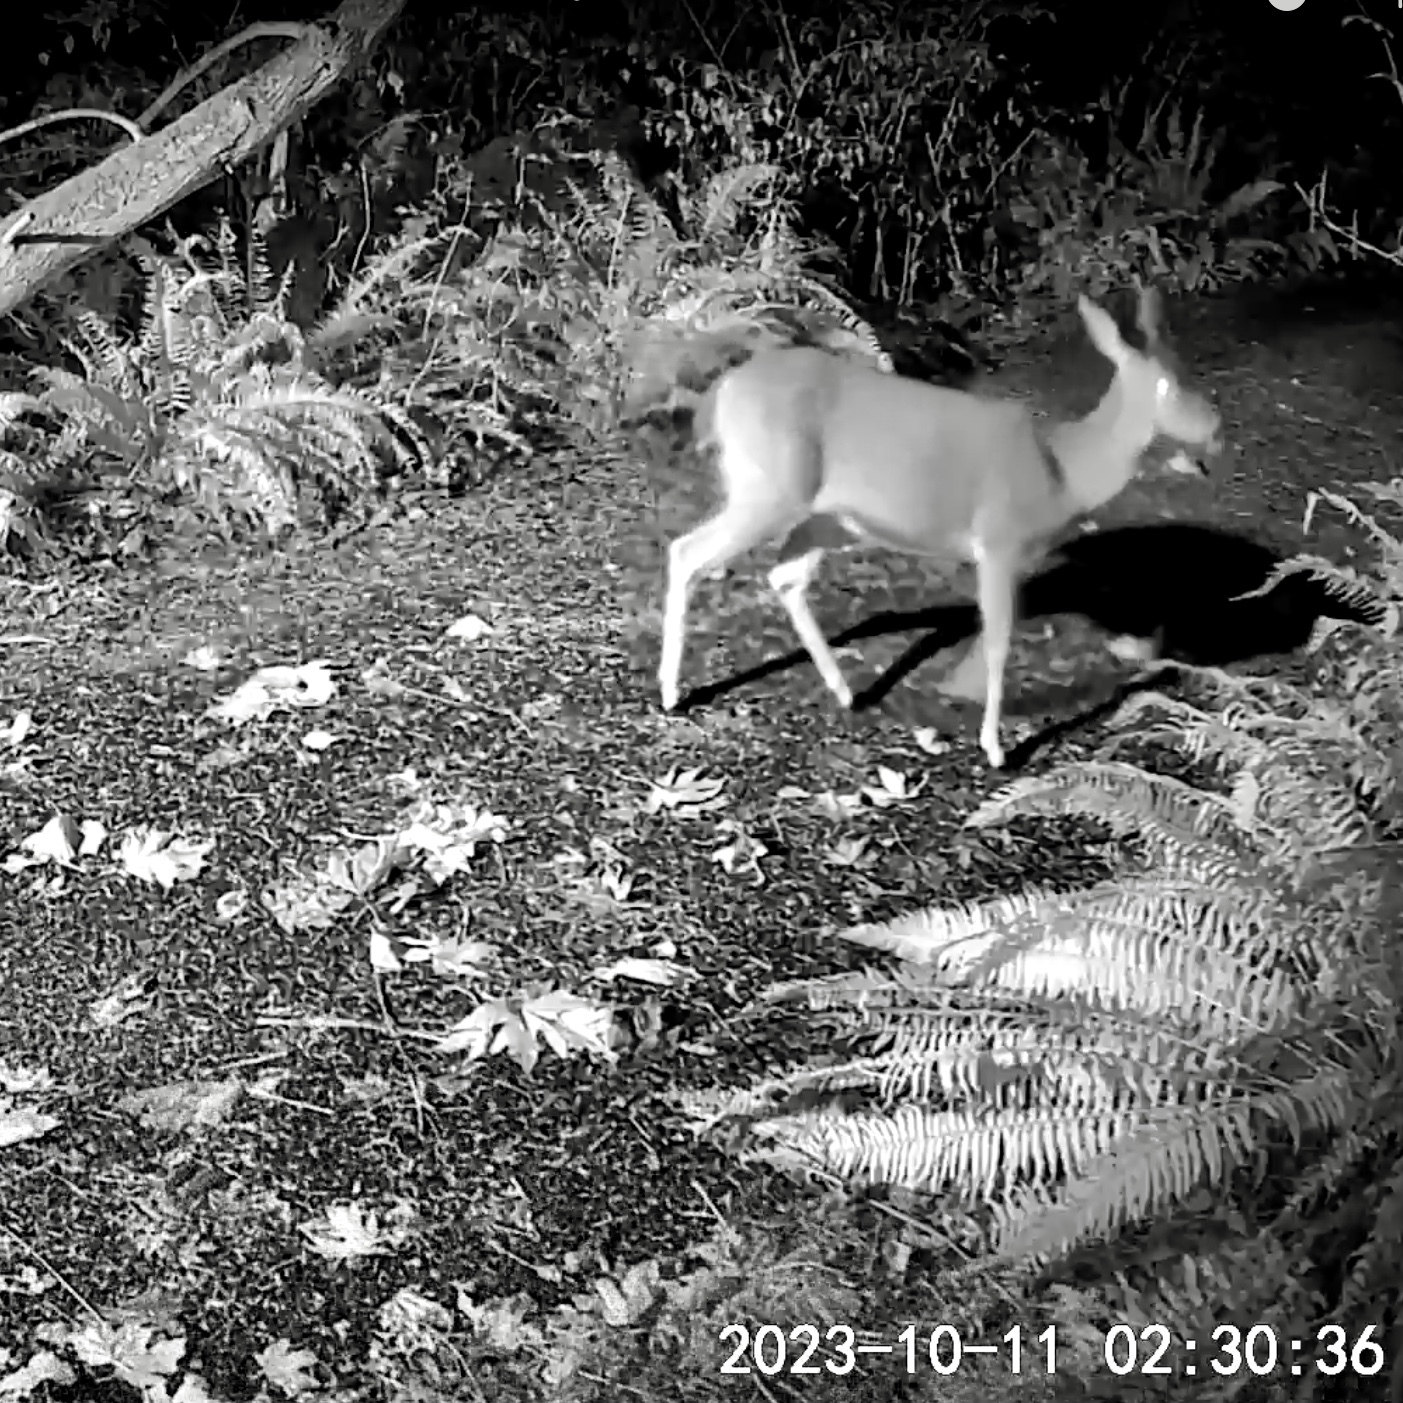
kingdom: Animalia
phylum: Chordata
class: Mammalia
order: Artiodactyla
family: Cervidae
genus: Odocoileus
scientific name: Odocoileus hemionus
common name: Mule deer
